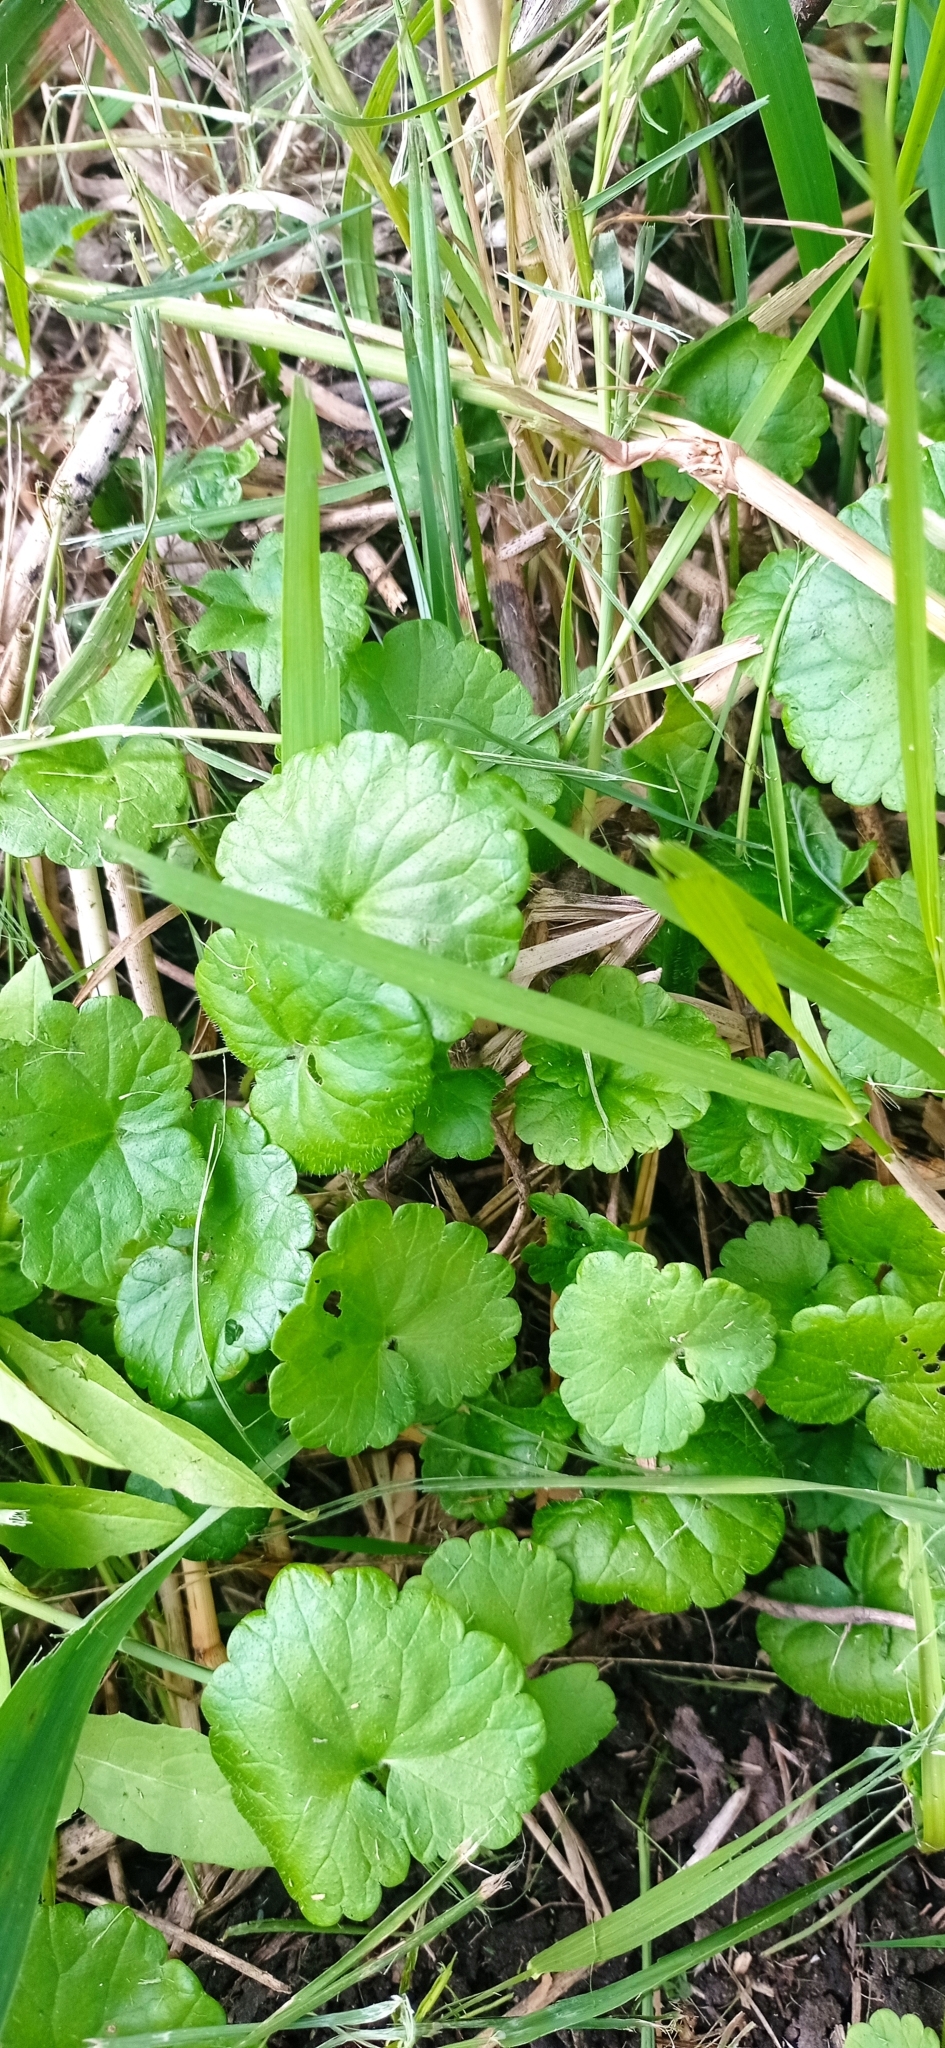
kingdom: Plantae
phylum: Tracheophyta
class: Magnoliopsida
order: Lamiales
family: Lamiaceae
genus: Glechoma
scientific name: Glechoma hederacea
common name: Ground ivy
